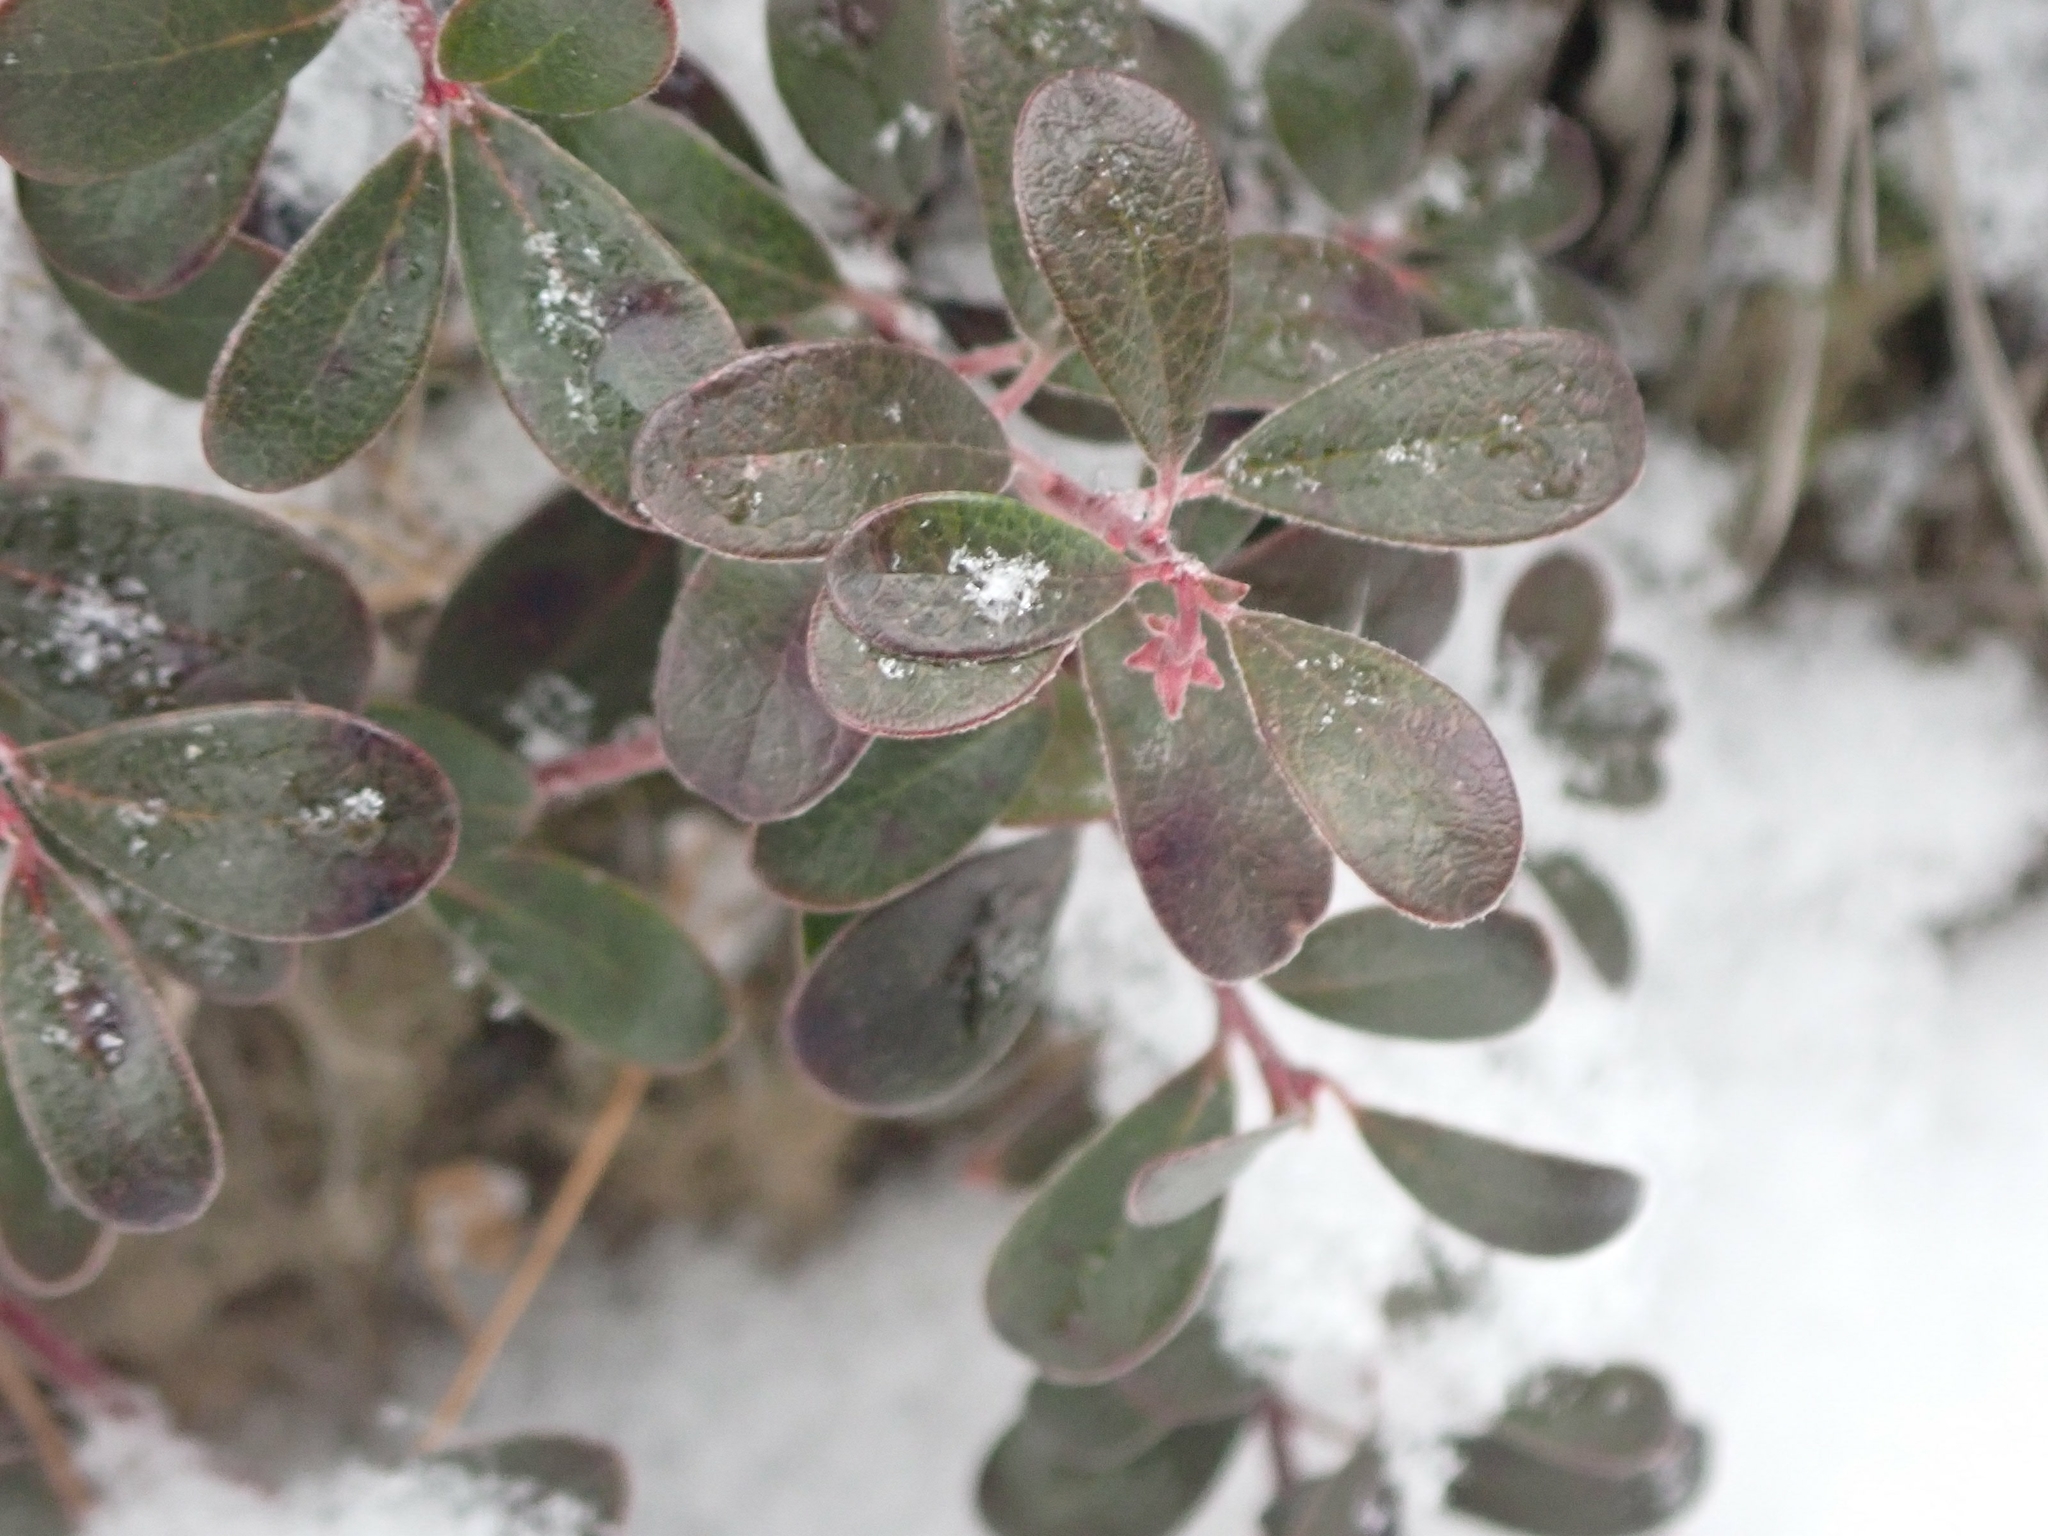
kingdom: Plantae
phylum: Tracheophyta
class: Magnoliopsida
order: Ericales
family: Ericaceae
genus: Arctostaphylos
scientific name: Arctostaphylos uva-ursi
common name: Bearberry
